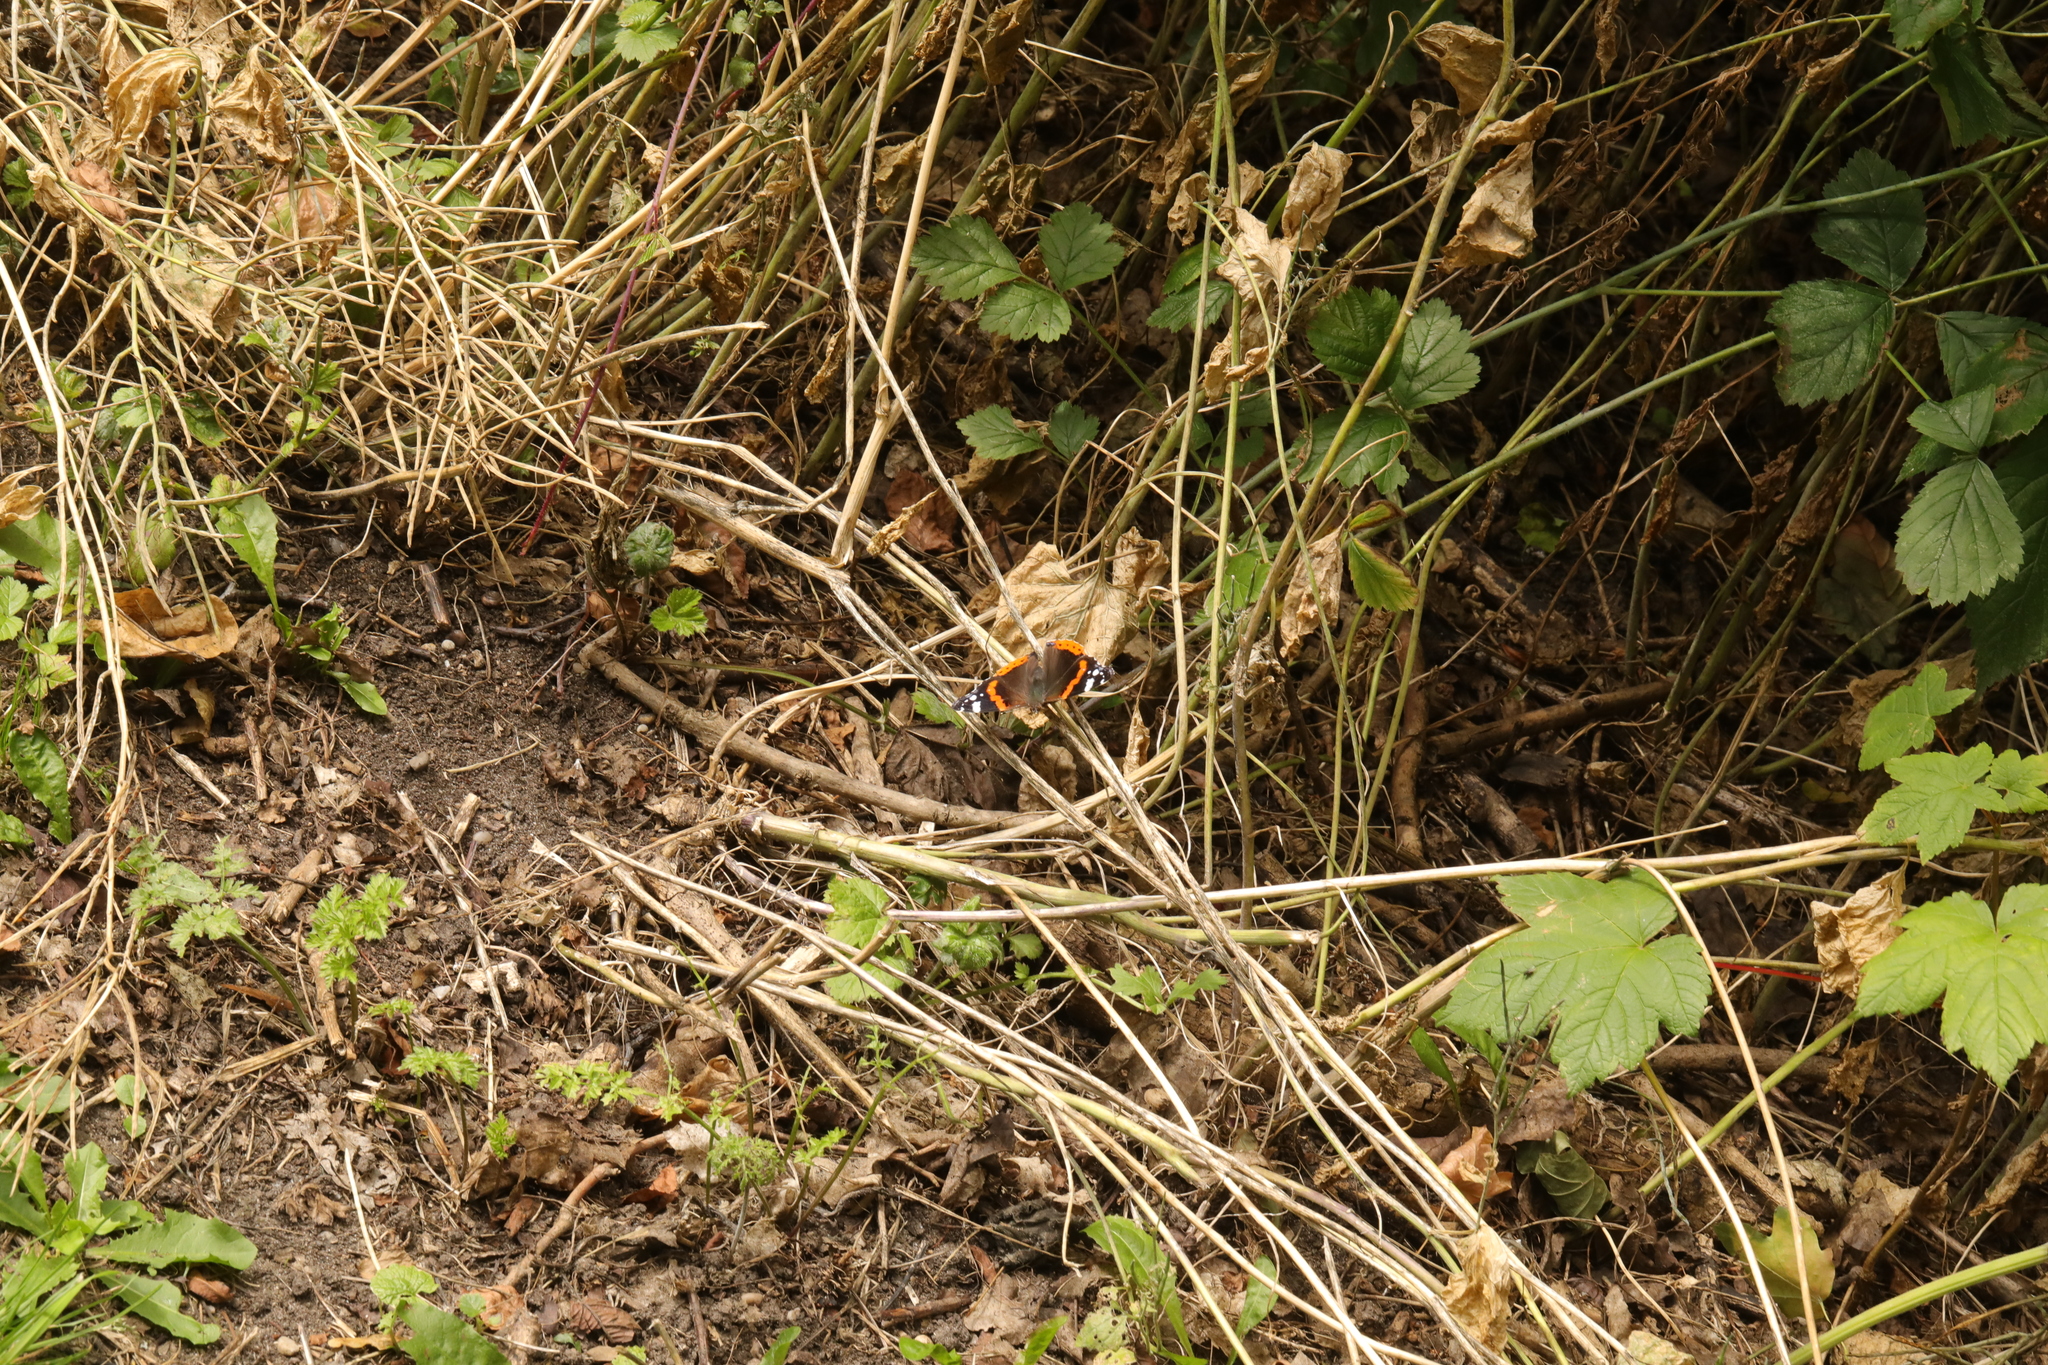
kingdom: Animalia
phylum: Arthropoda
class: Insecta
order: Lepidoptera
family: Nymphalidae
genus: Vanessa
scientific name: Vanessa atalanta
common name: Red admiral
